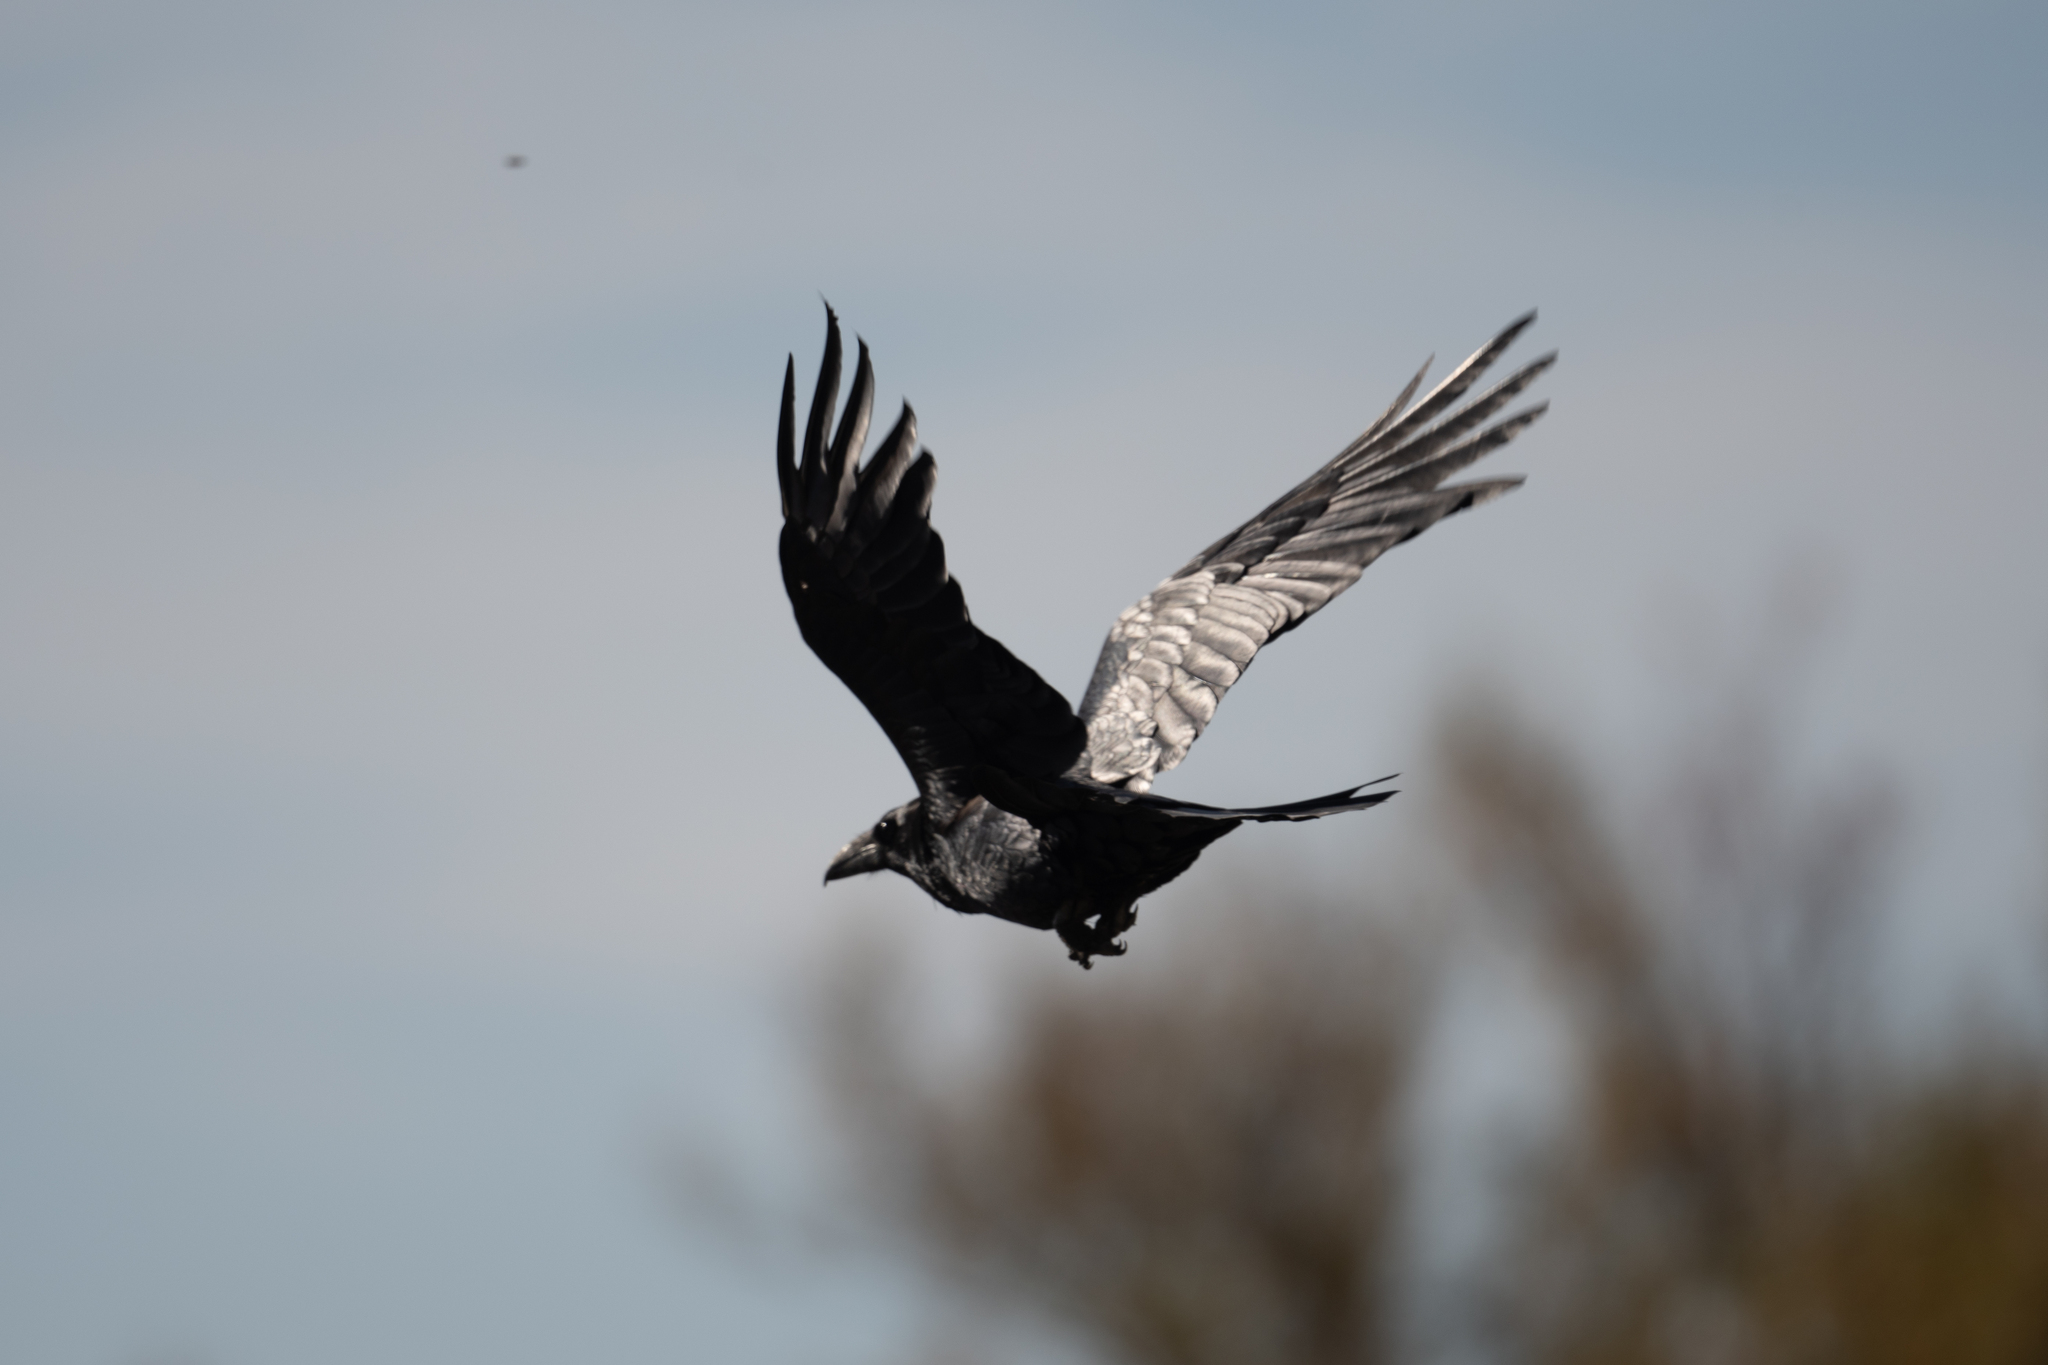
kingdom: Animalia
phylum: Chordata
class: Aves
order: Passeriformes
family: Corvidae
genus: Corvus
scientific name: Corvus corax
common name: Common raven
